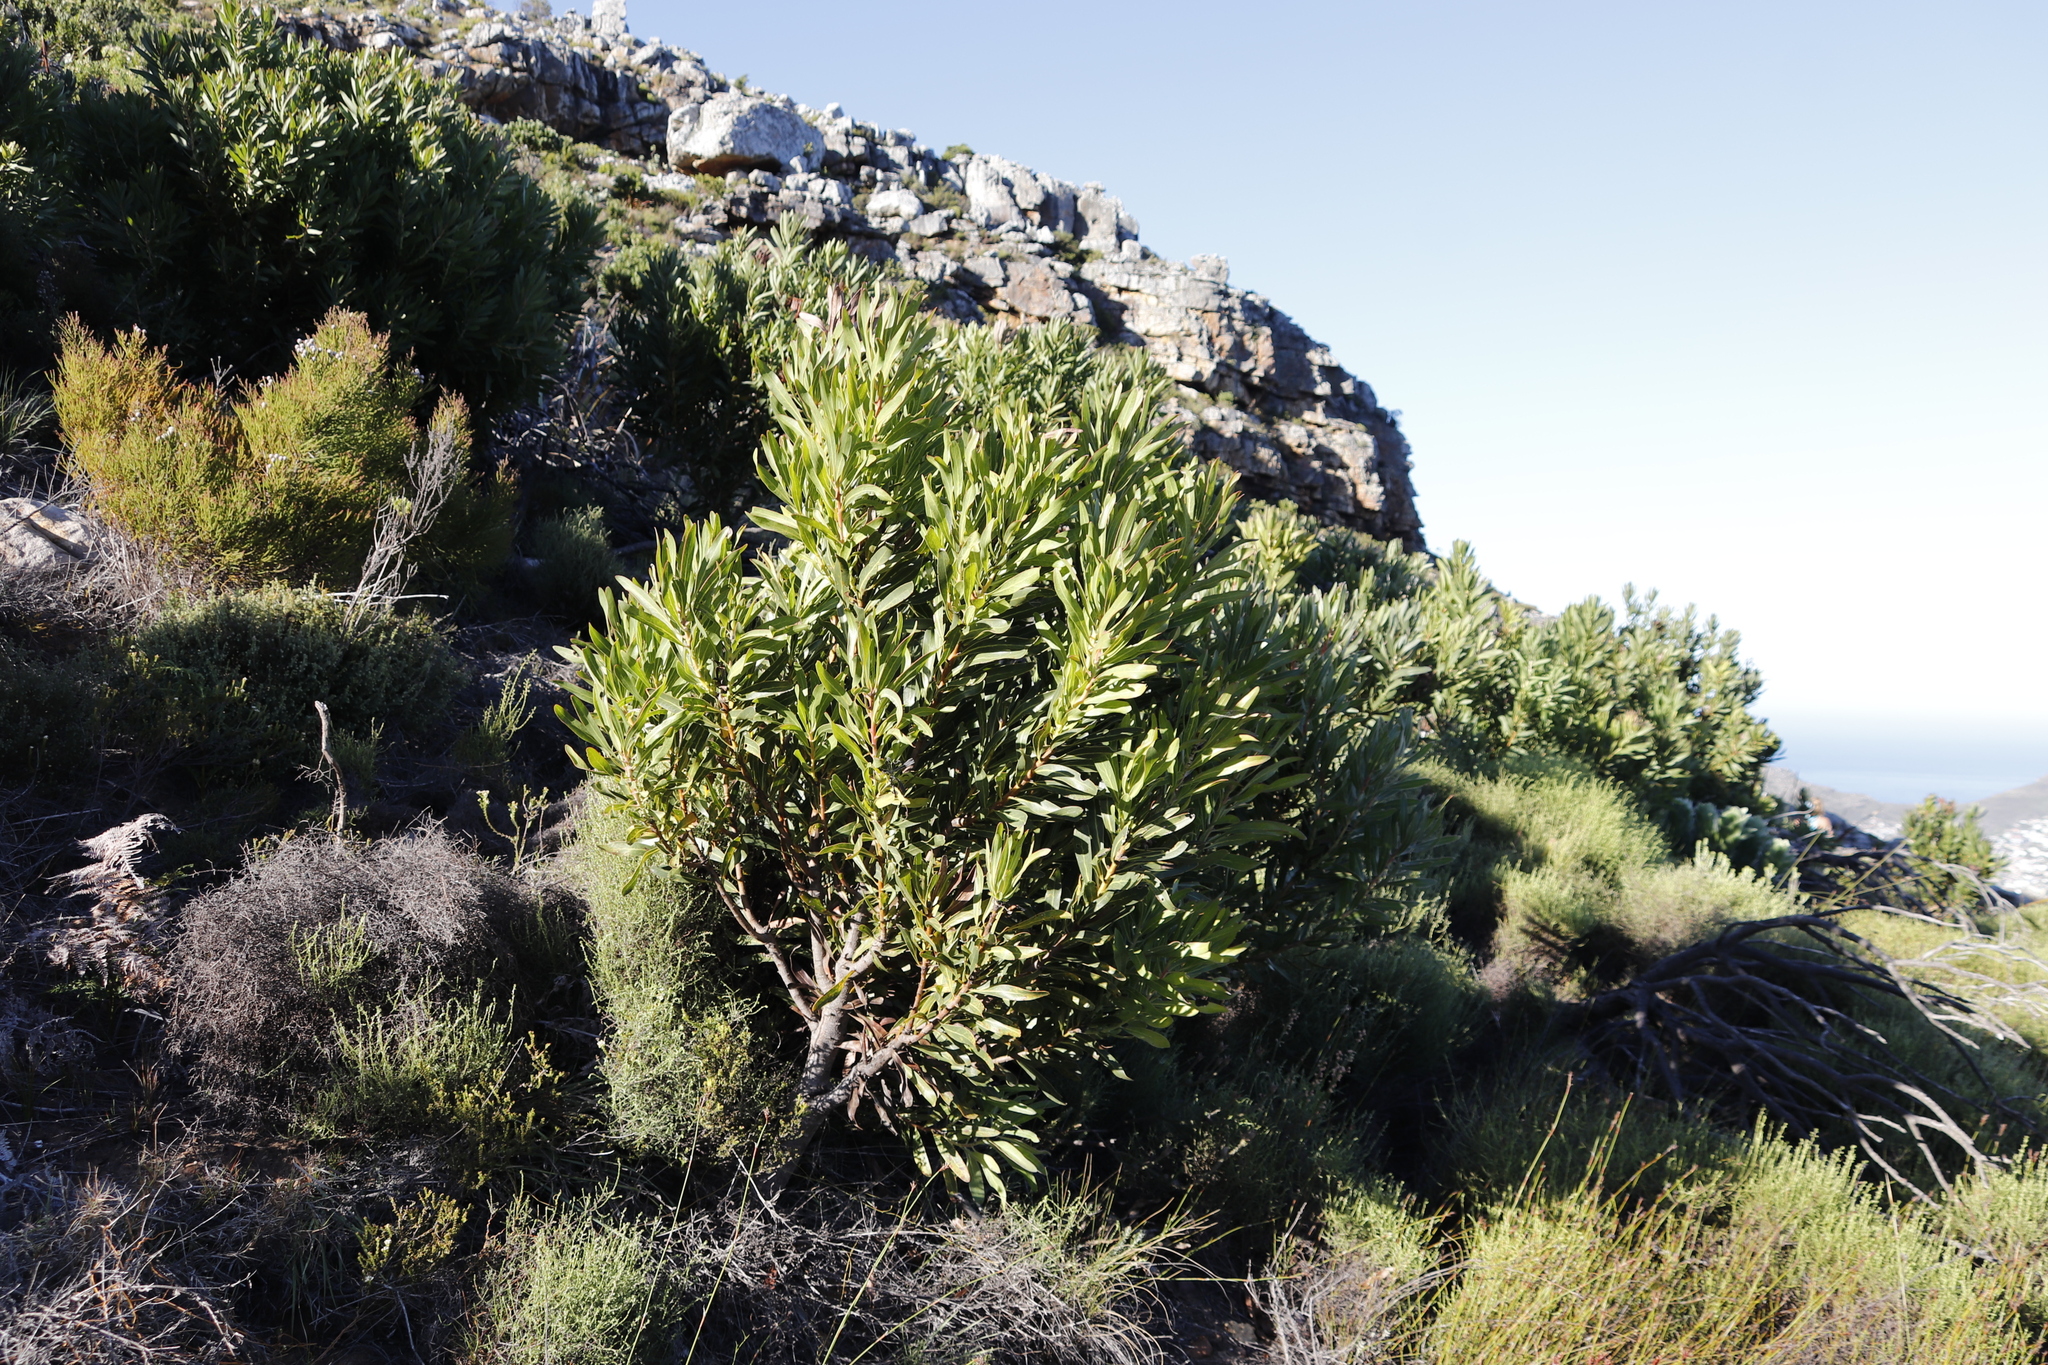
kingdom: Plantae
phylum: Tracheophyta
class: Magnoliopsida
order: Proteales
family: Proteaceae
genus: Protea
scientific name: Protea lepidocarpodendron
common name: Black-bearded protea
